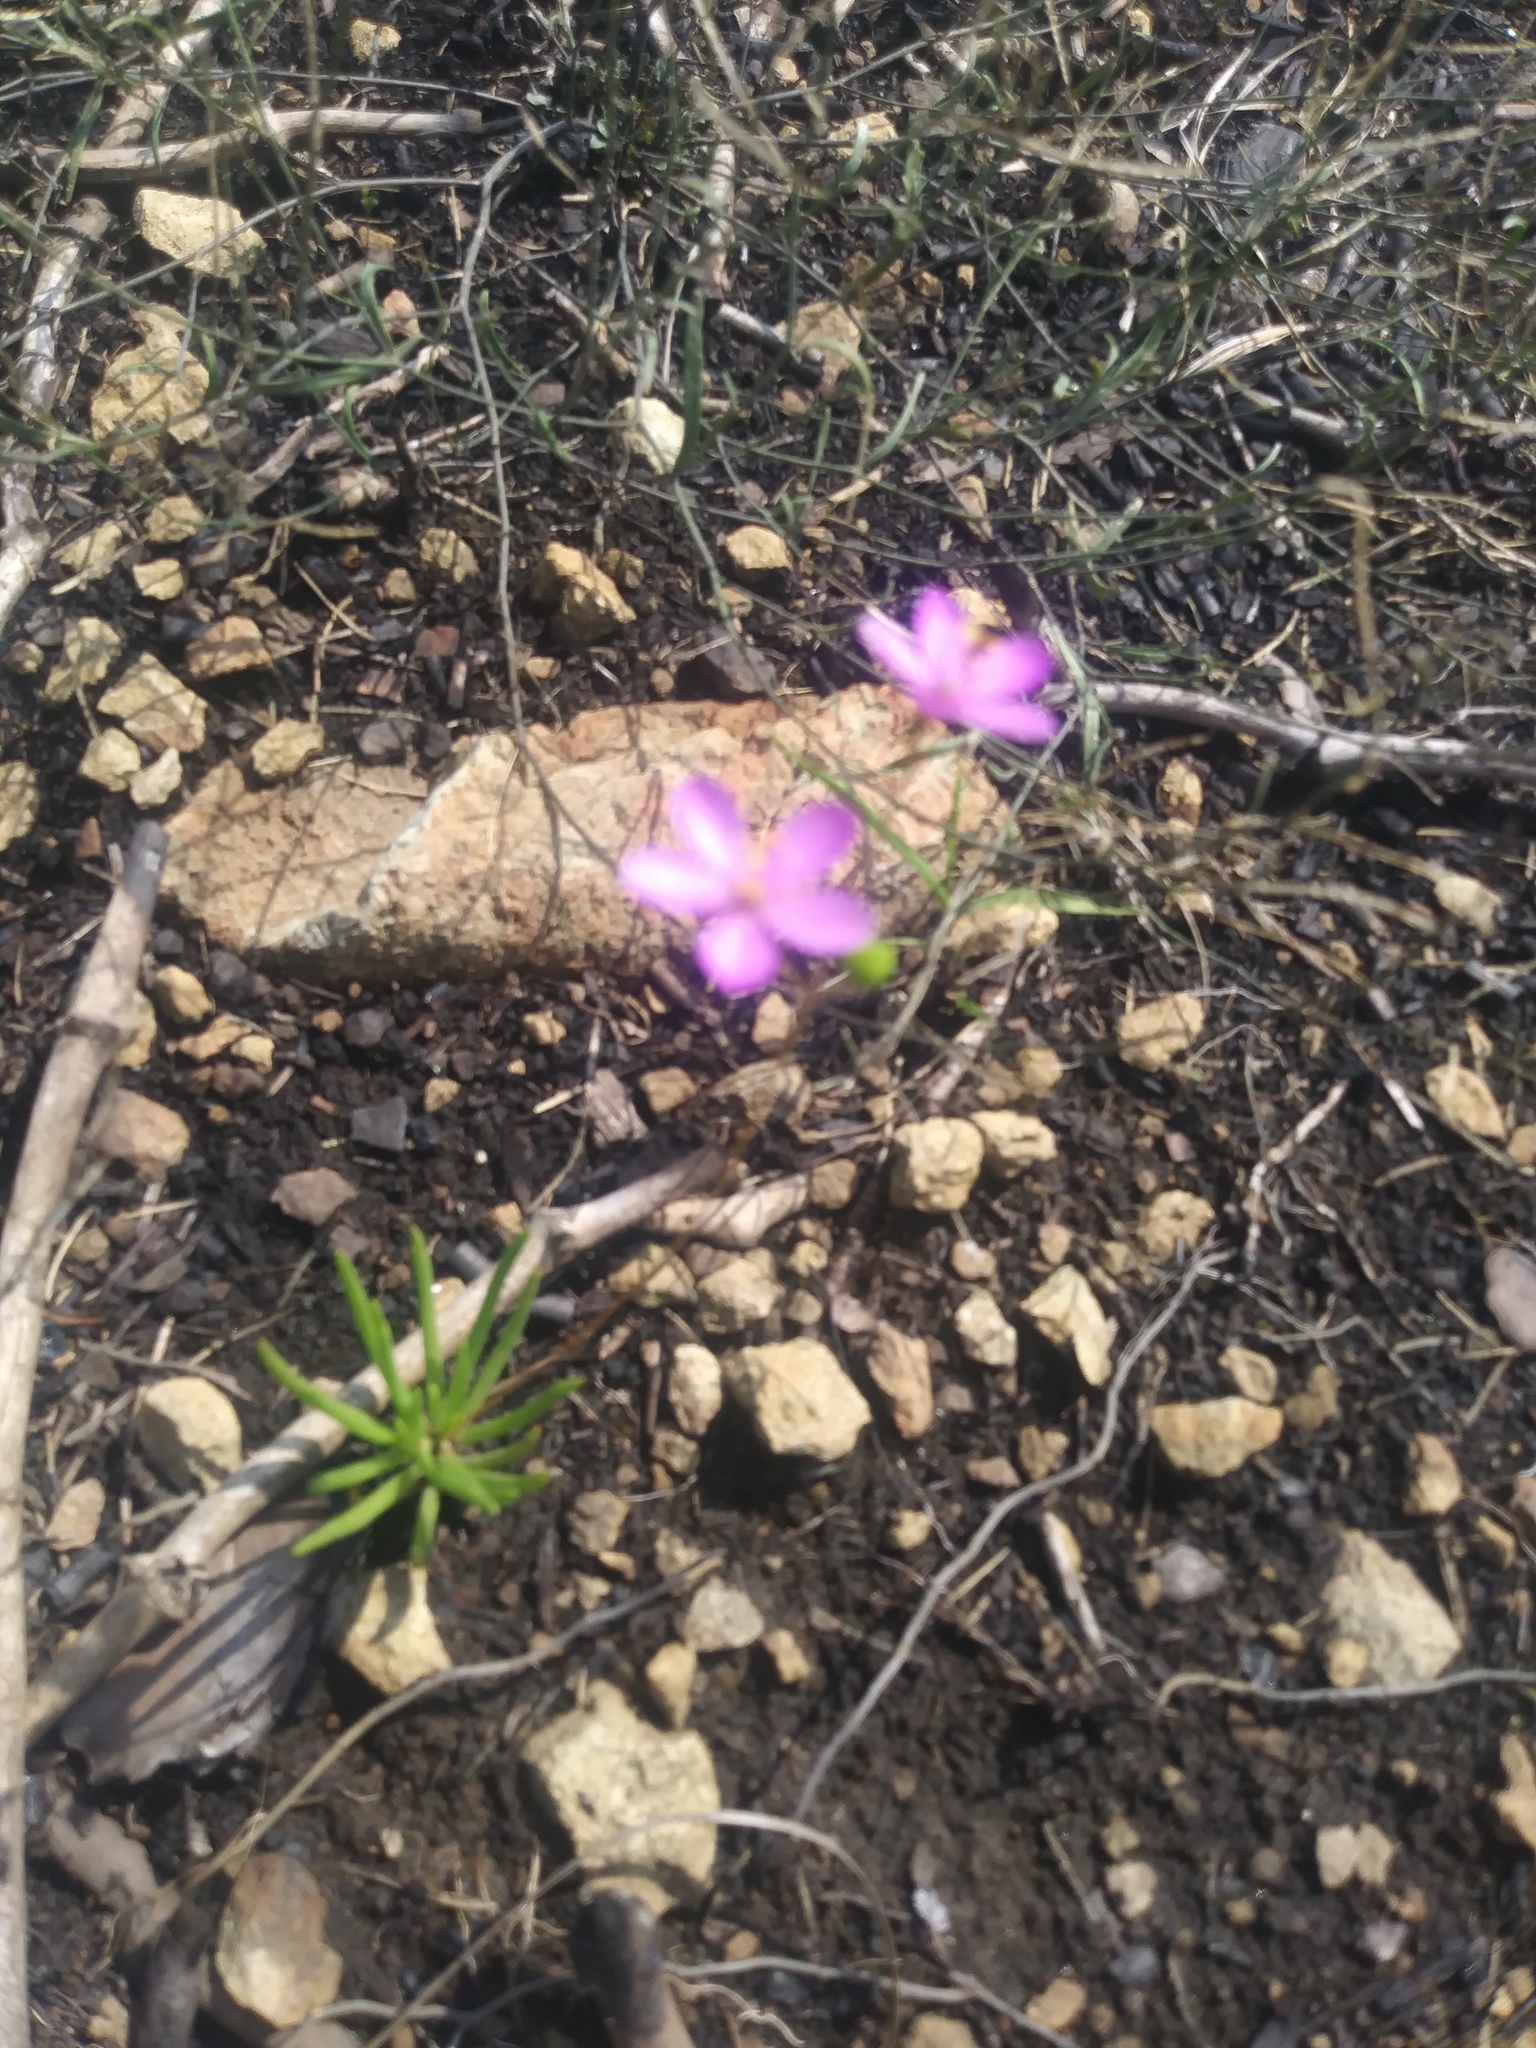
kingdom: Plantae
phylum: Tracheophyta
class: Magnoliopsida
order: Caryophyllales
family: Montiaceae
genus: Phemeranthus
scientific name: Phemeranthus teretifolius
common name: Quill fameflower
